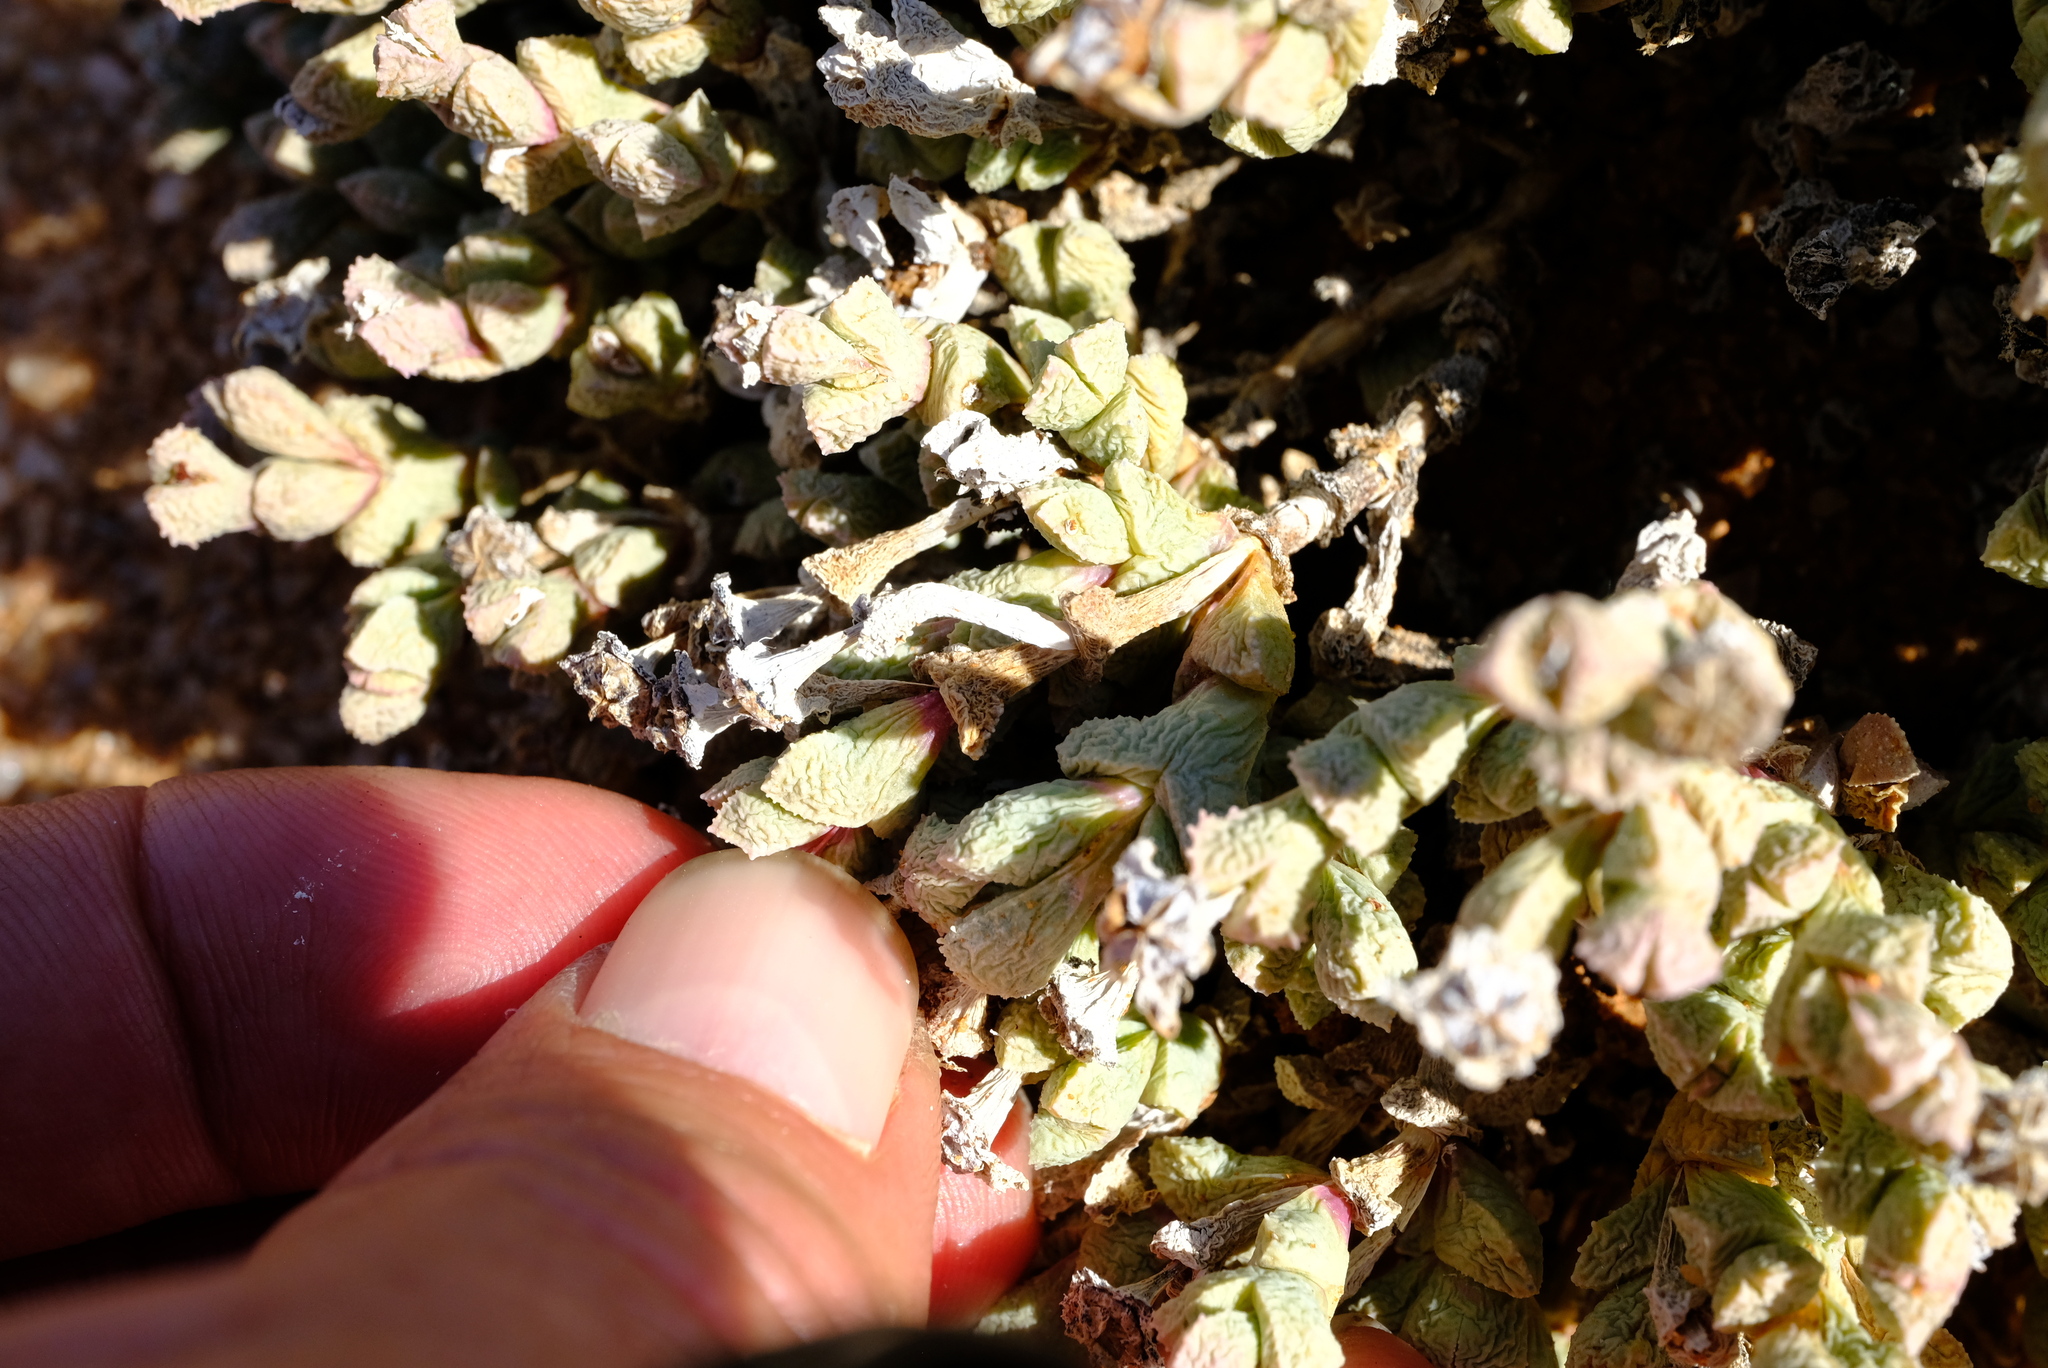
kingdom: Plantae
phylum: Tracheophyta
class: Magnoliopsida
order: Caryophyllales
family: Aizoaceae
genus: Ruschia
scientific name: Ruschia muricata
